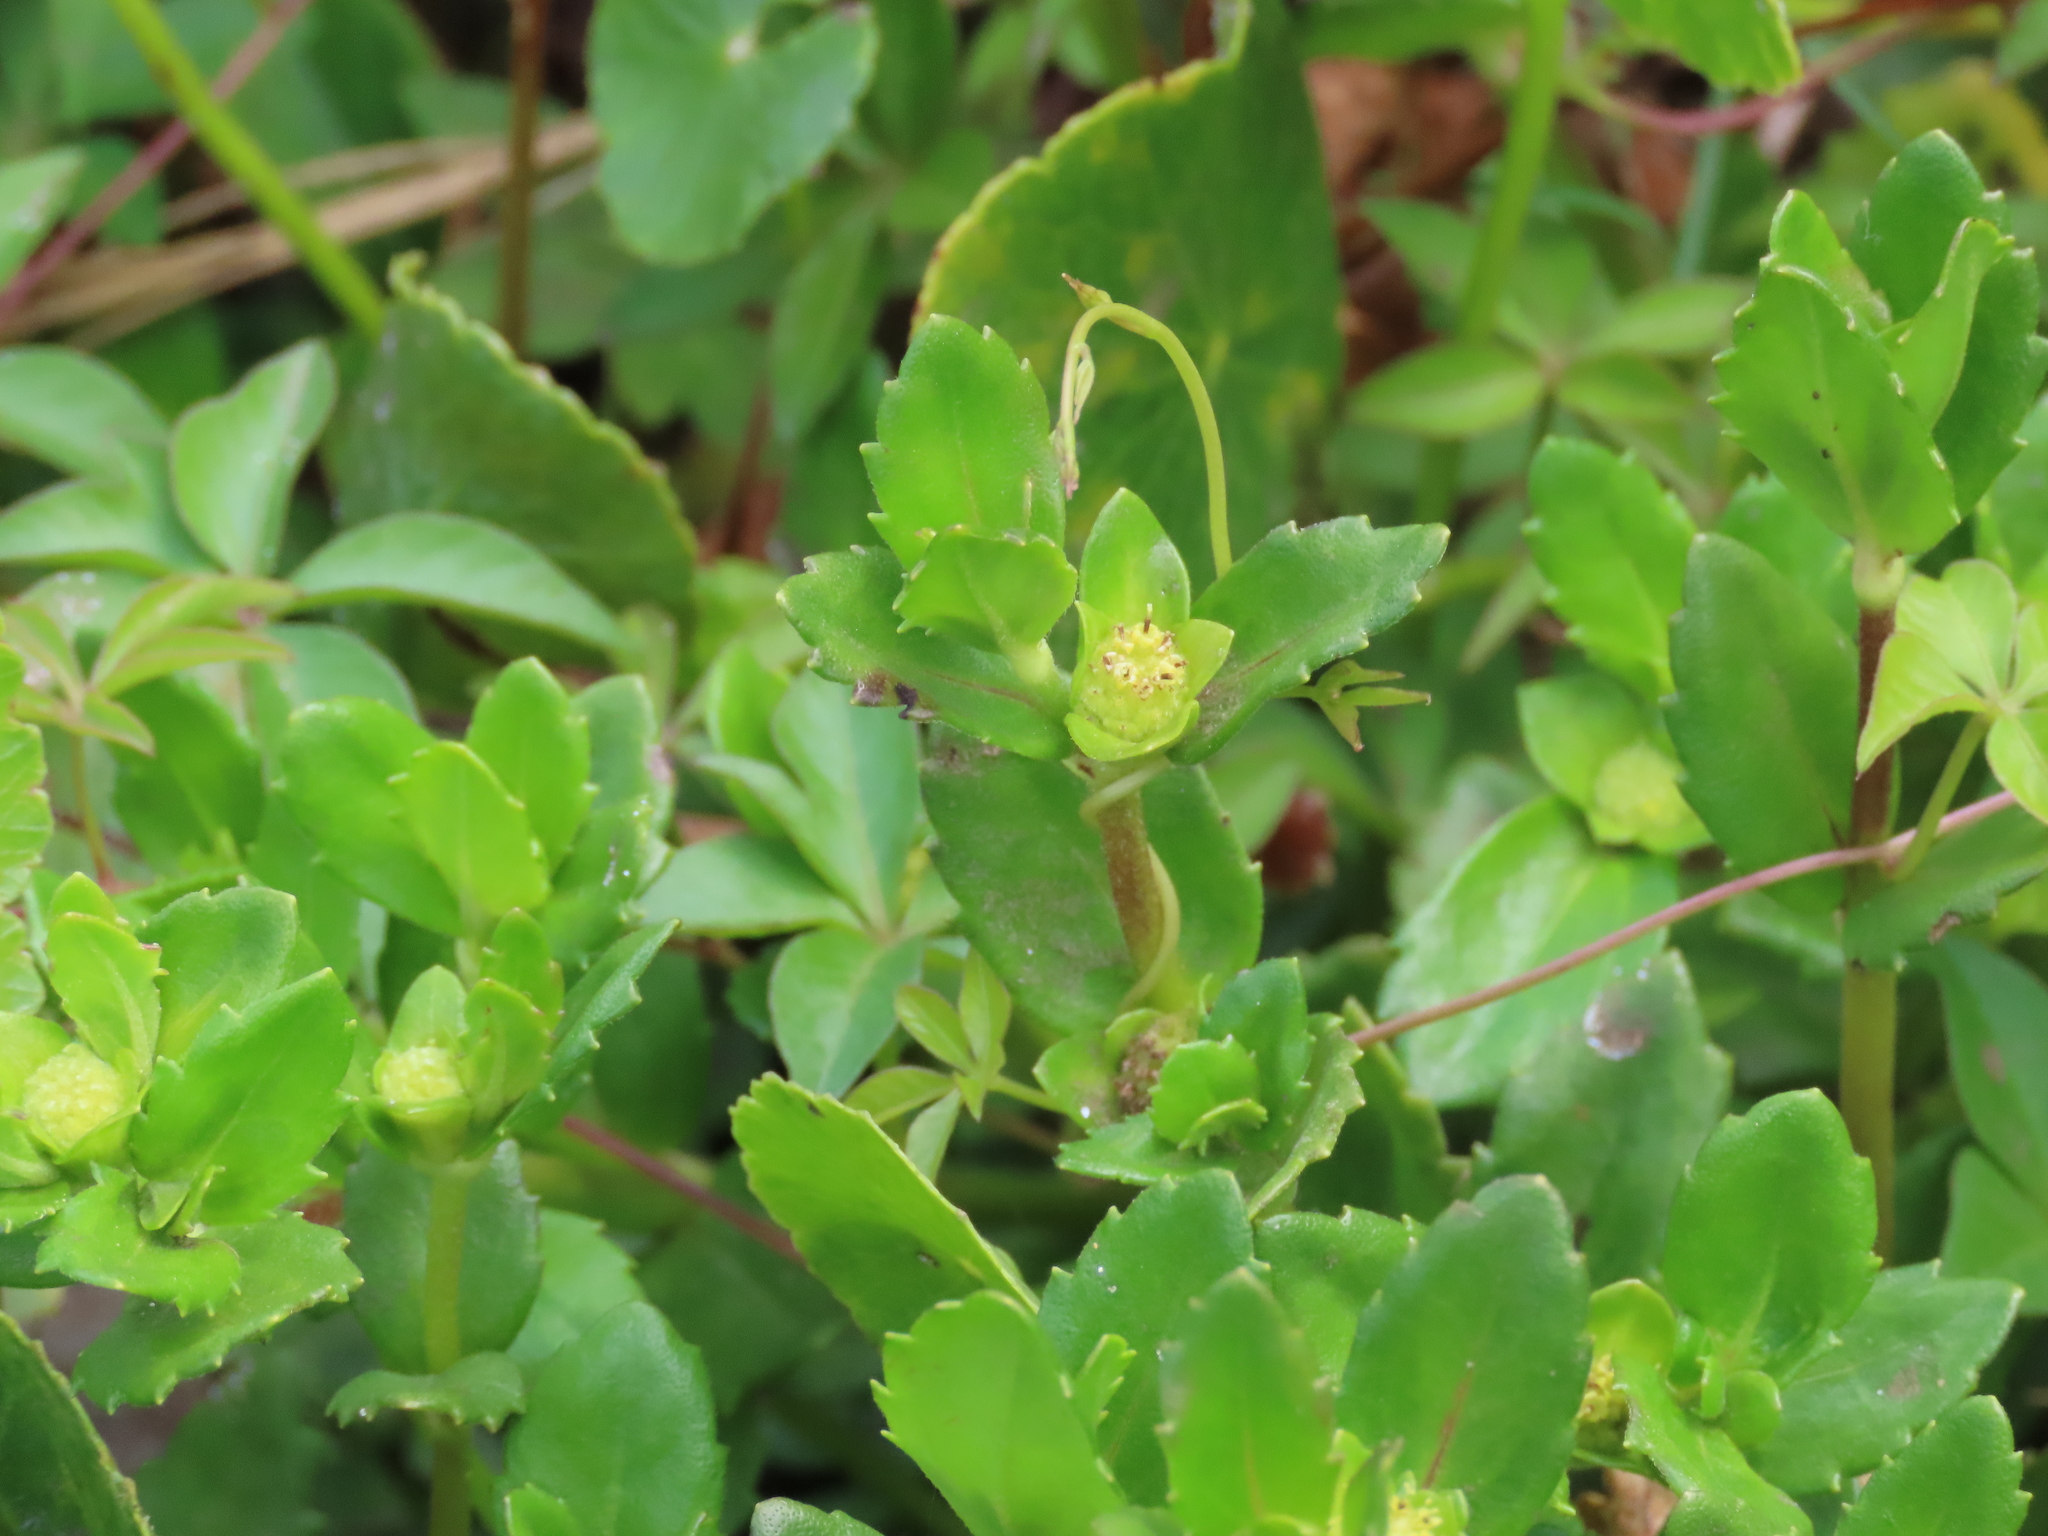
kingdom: Plantae
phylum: Tracheophyta
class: Magnoliopsida
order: Asterales
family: Asteraceae
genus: Enydra
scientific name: Enydra sessilis
